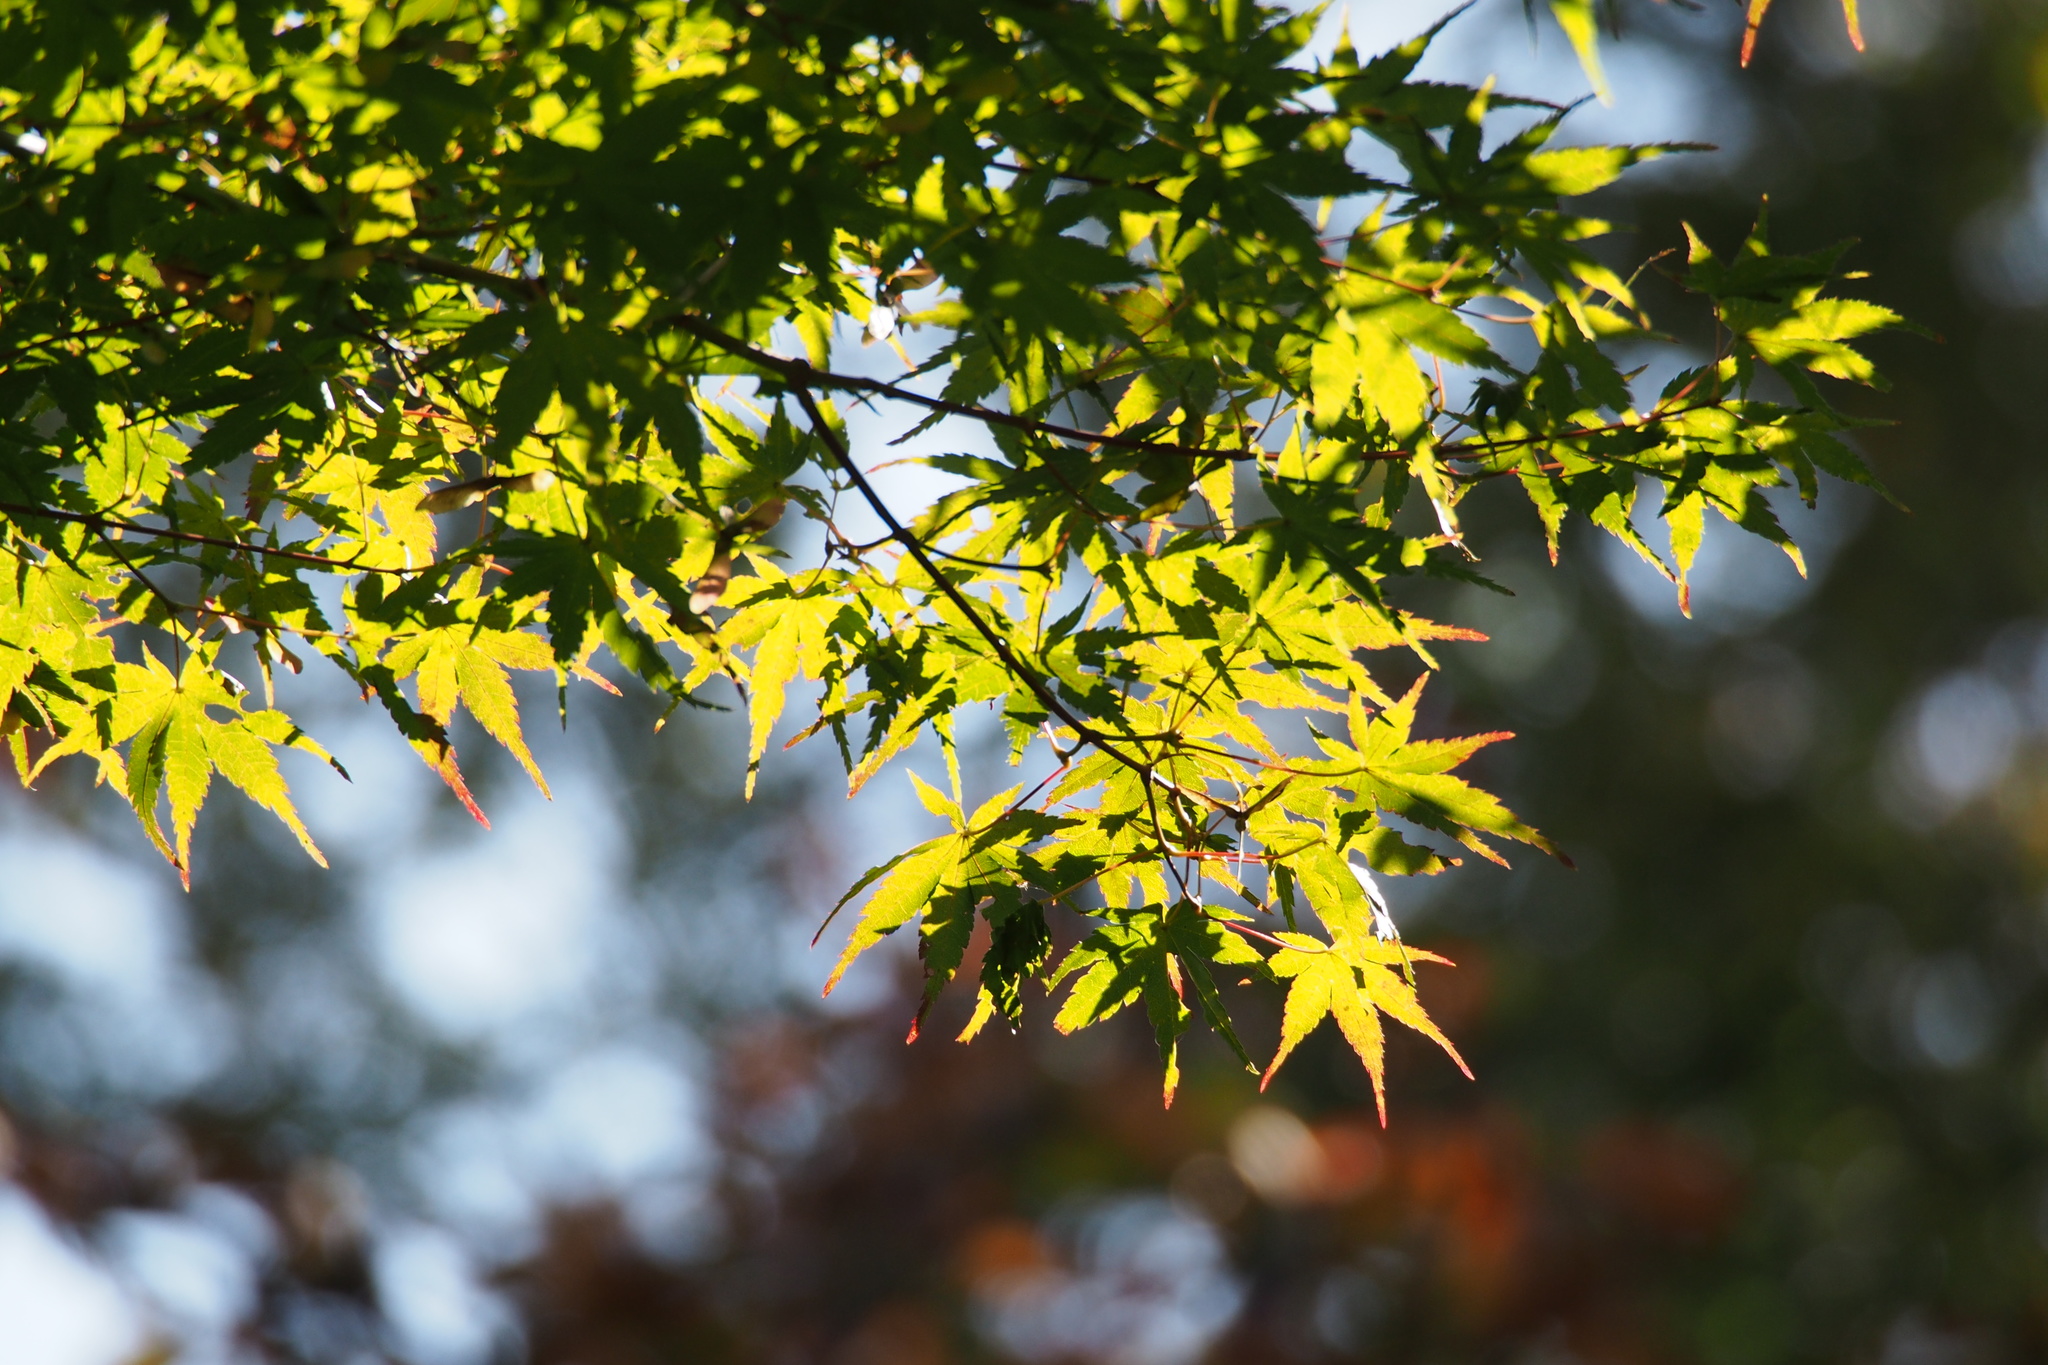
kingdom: Plantae
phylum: Tracheophyta
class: Magnoliopsida
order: Sapindales
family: Sapindaceae
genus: Acer
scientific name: Acer palmatum
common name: Japanese maple
